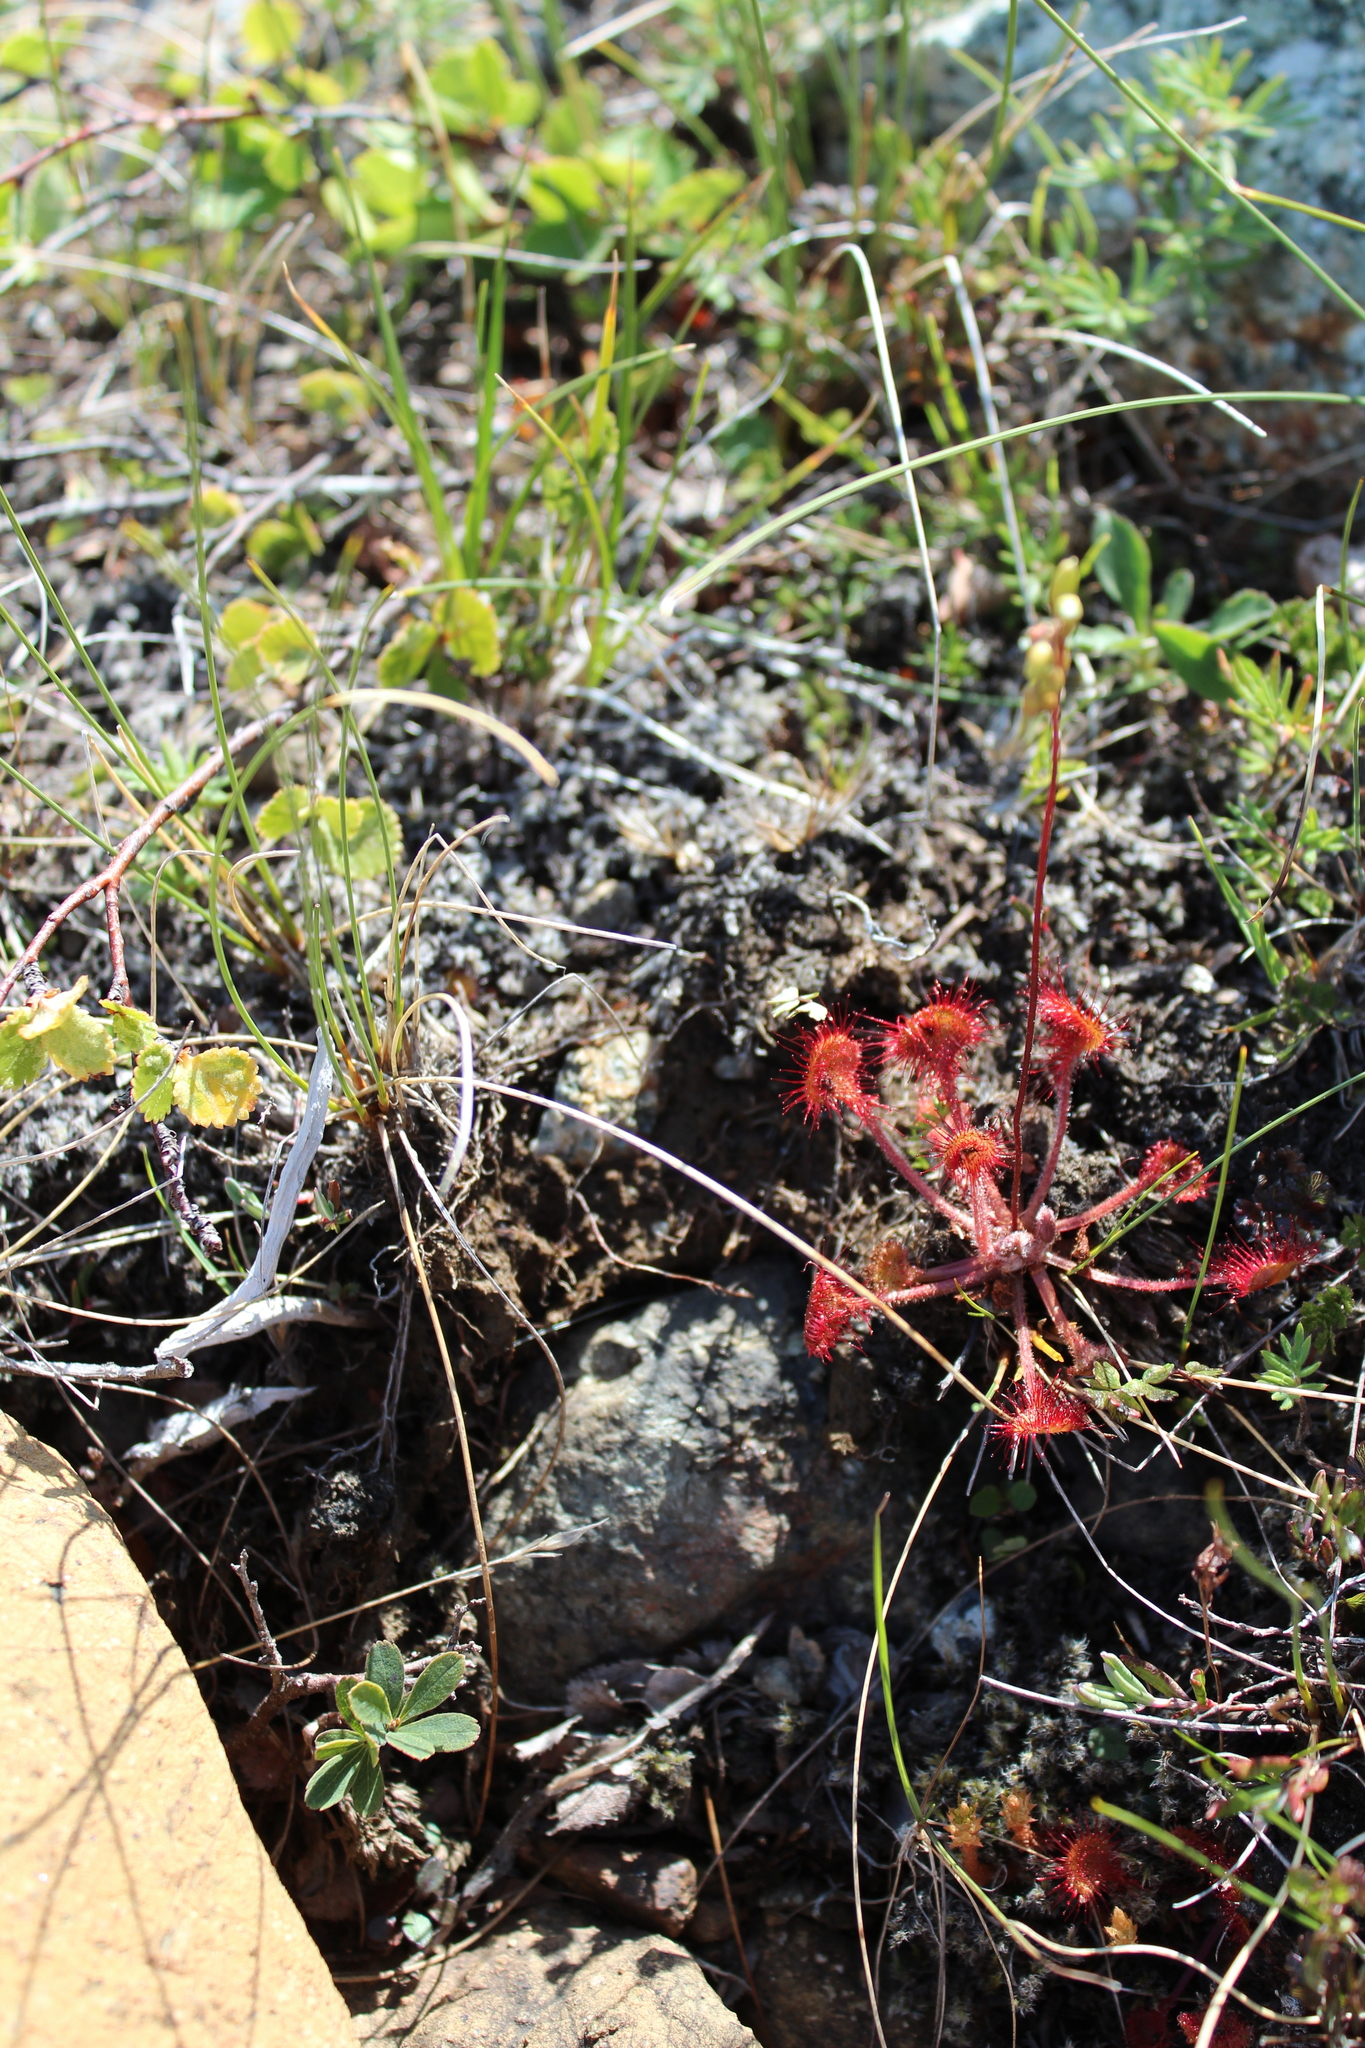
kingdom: Plantae
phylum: Tracheophyta
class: Magnoliopsida
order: Caryophyllales
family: Droseraceae
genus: Drosera
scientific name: Drosera rotundifolia
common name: Round-leaved sundew
